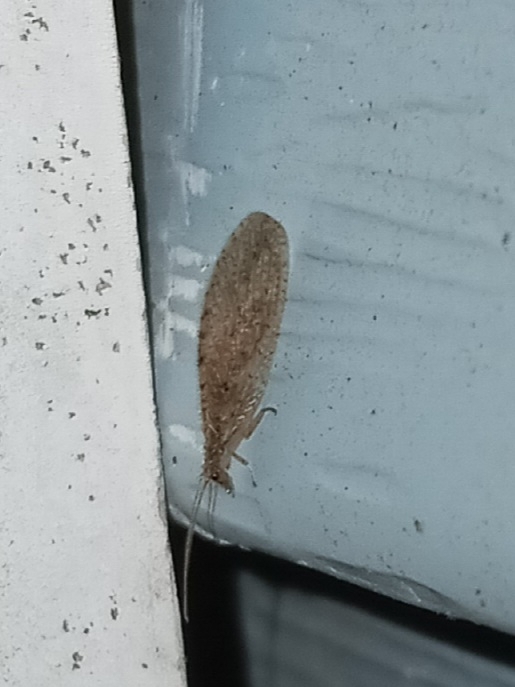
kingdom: Animalia
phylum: Arthropoda
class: Insecta
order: Neuroptera
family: Hemerobiidae
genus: Micromus
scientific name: Micromus subanticus
